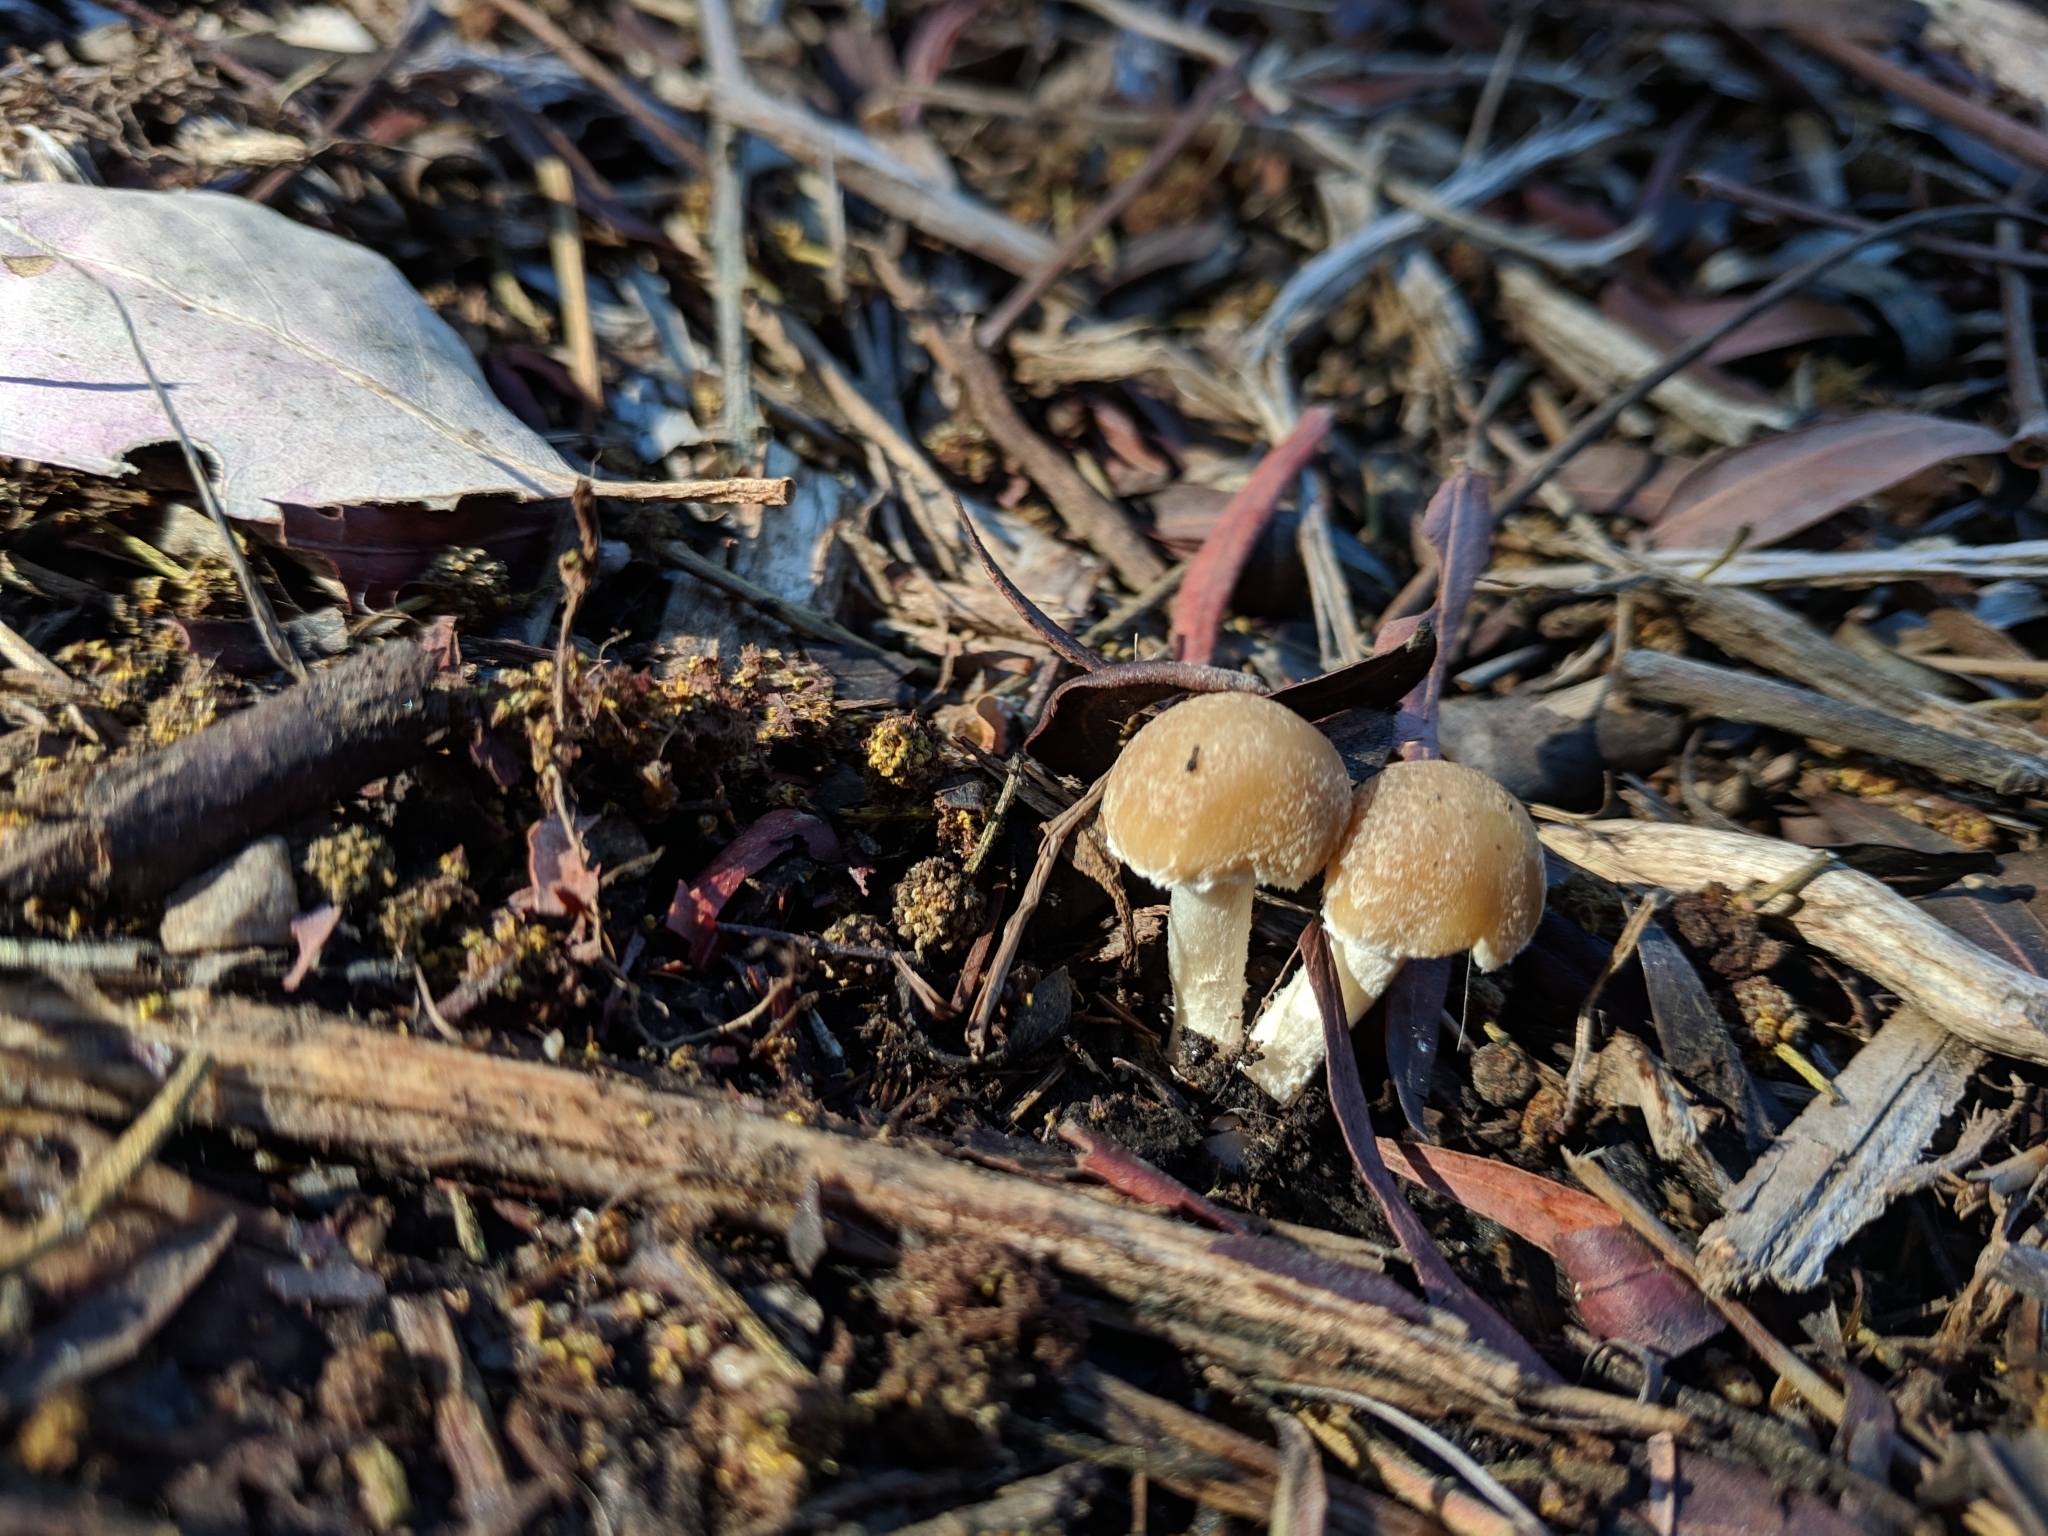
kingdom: Fungi
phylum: Basidiomycota
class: Agaricomycetes
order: Agaricales
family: Psathyrellaceae
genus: Candolleomyces
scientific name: Candolleomyces candolleanus
